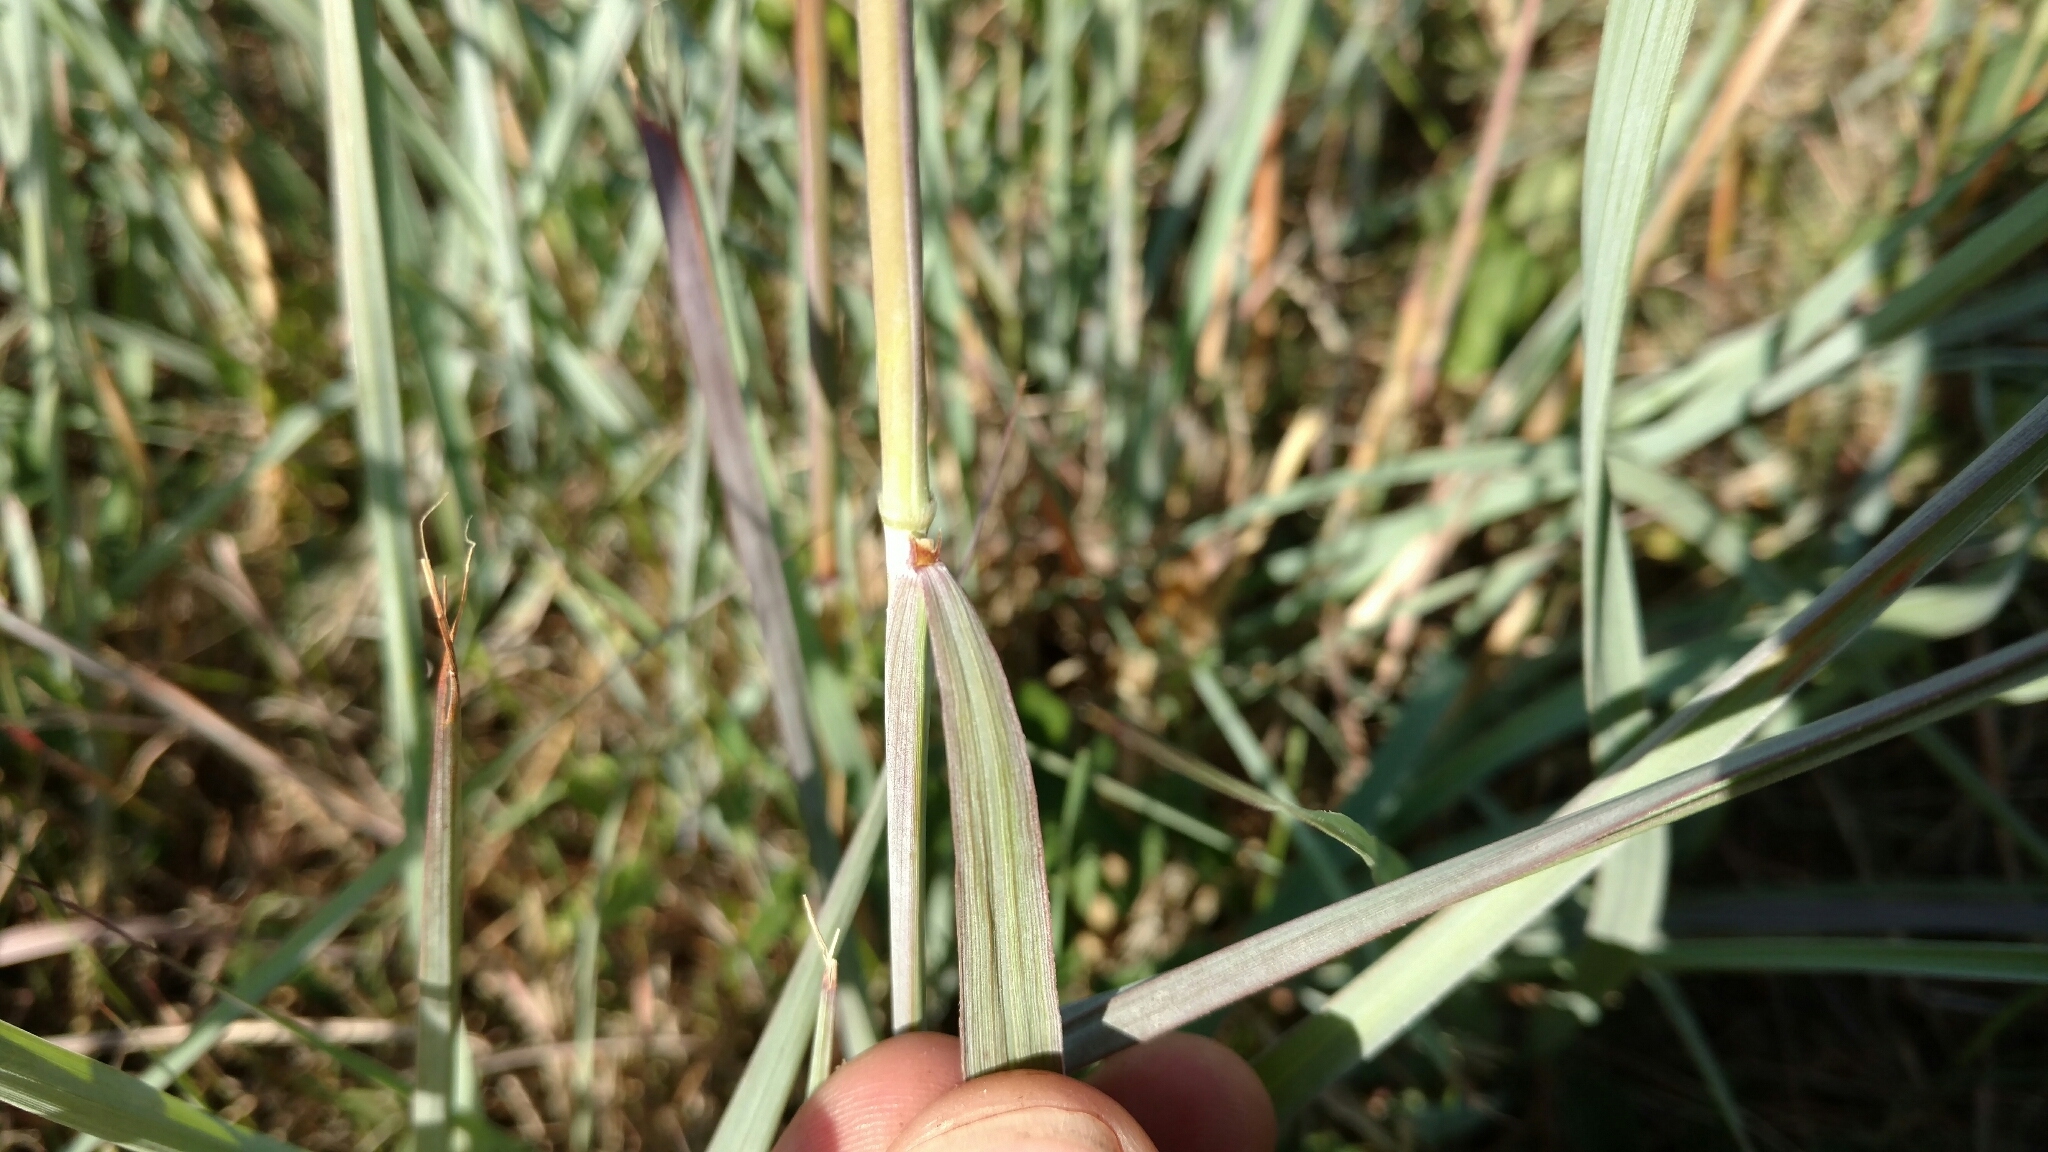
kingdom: Plantae
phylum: Tracheophyta
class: Liliopsida
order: Poales
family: Poaceae
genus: Sorghastrum
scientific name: Sorghastrum nutans
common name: Indian grass
